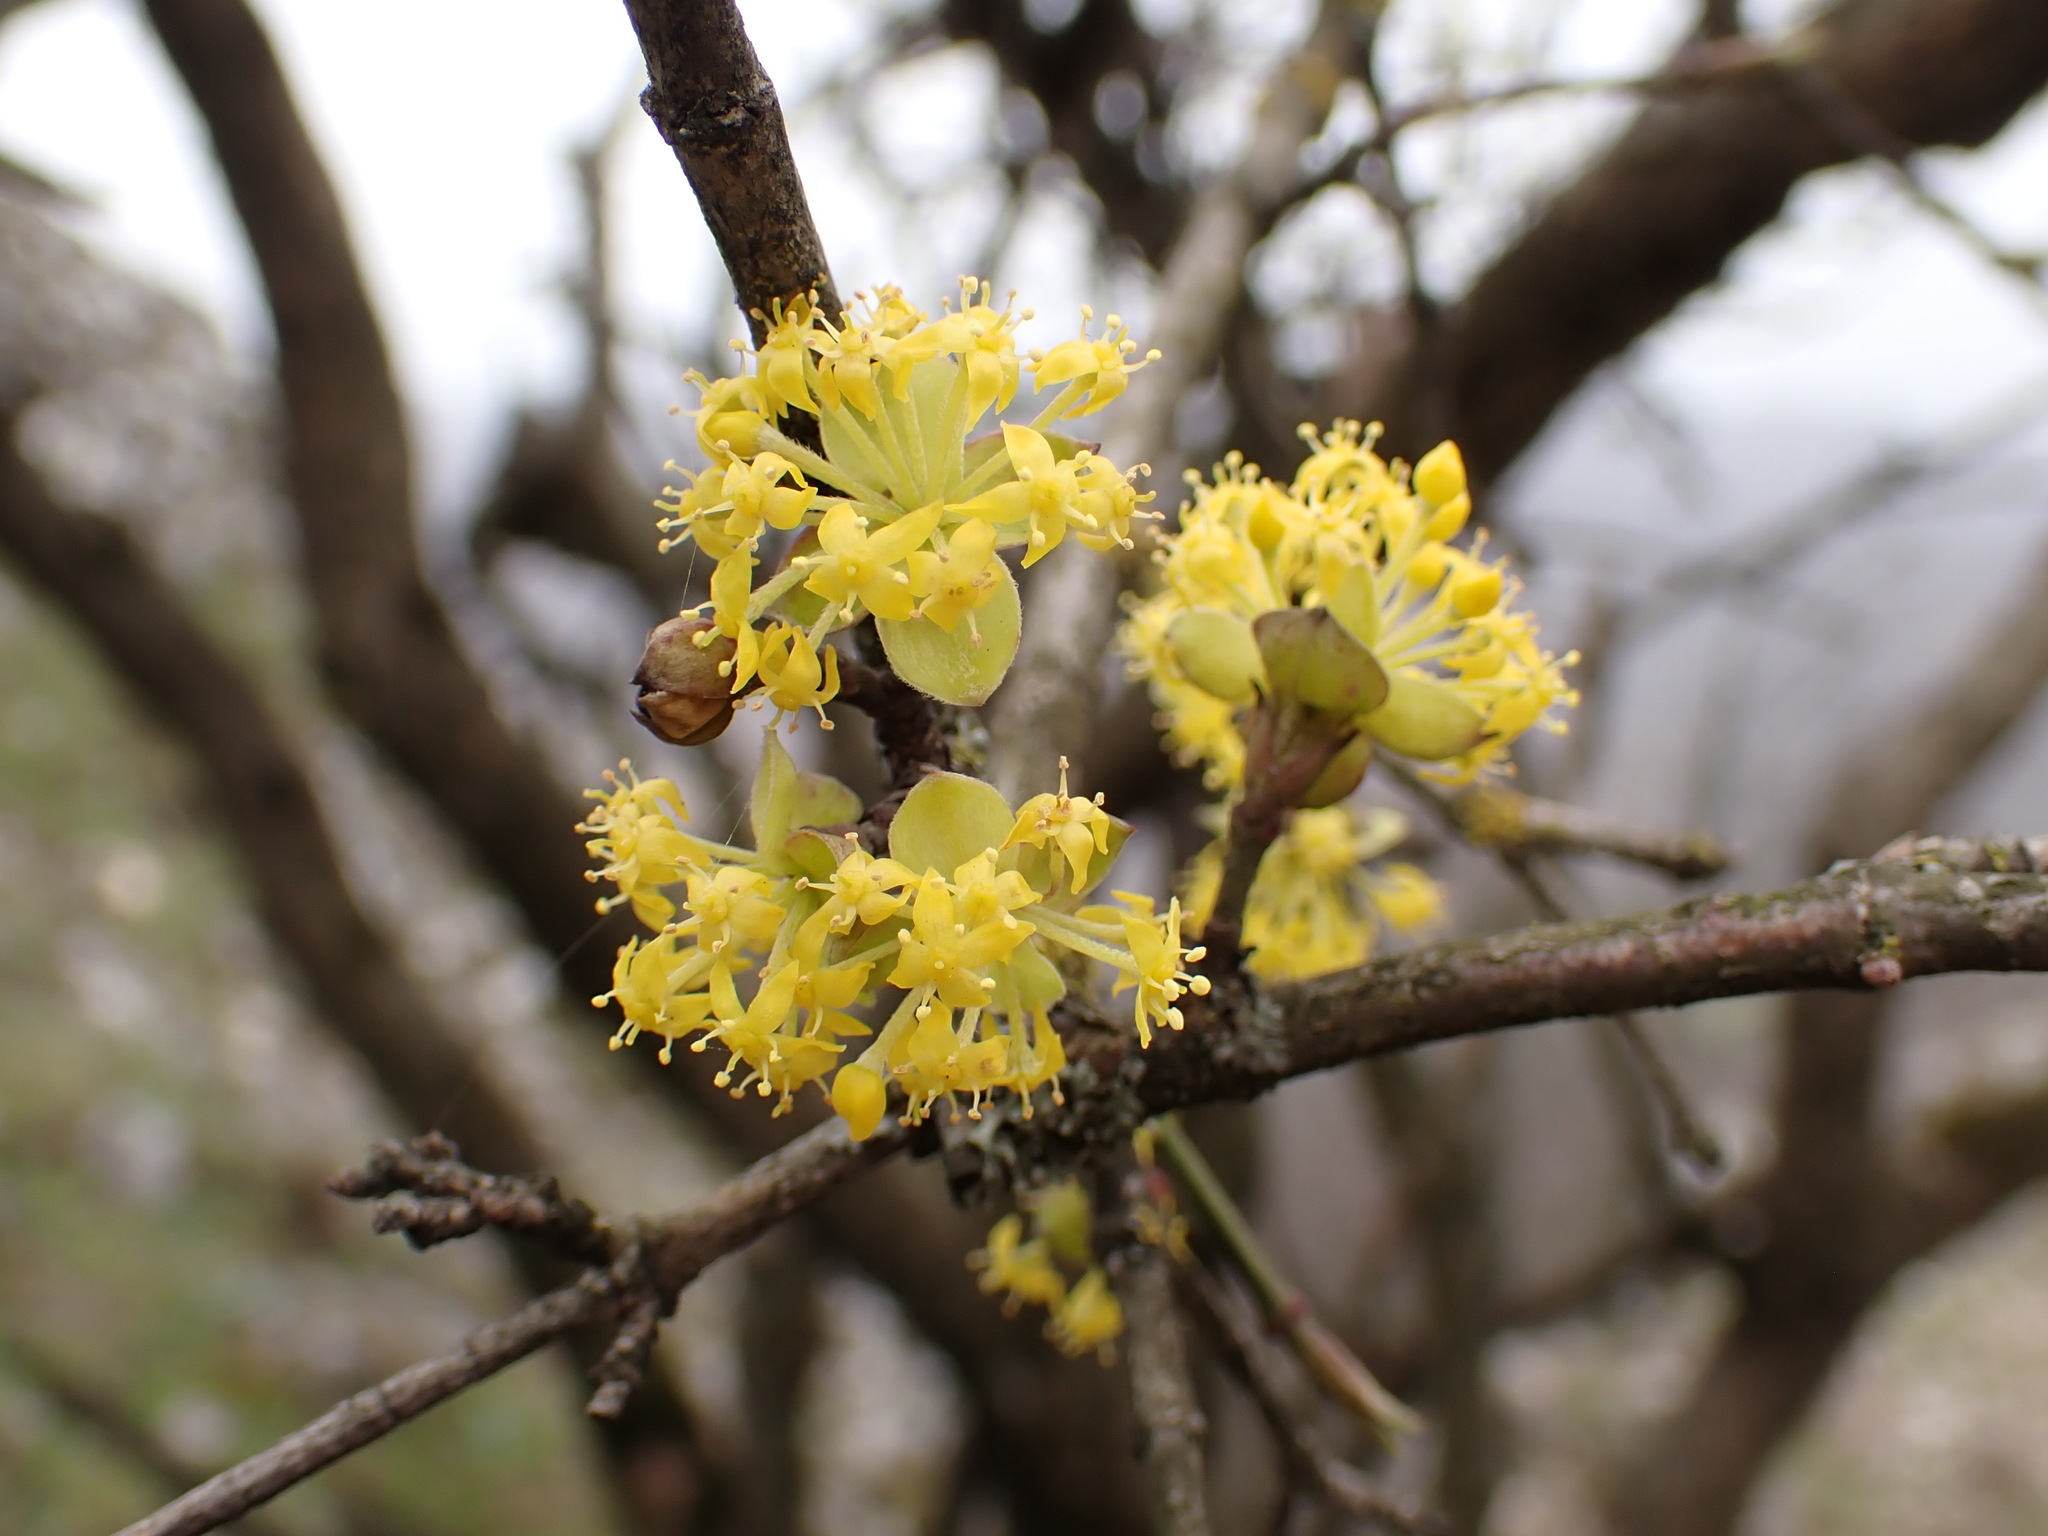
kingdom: Plantae
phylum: Tracheophyta
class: Magnoliopsida
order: Cornales
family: Cornaceae
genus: Cornus
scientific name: Cornus mas
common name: Cornelian-cherry
